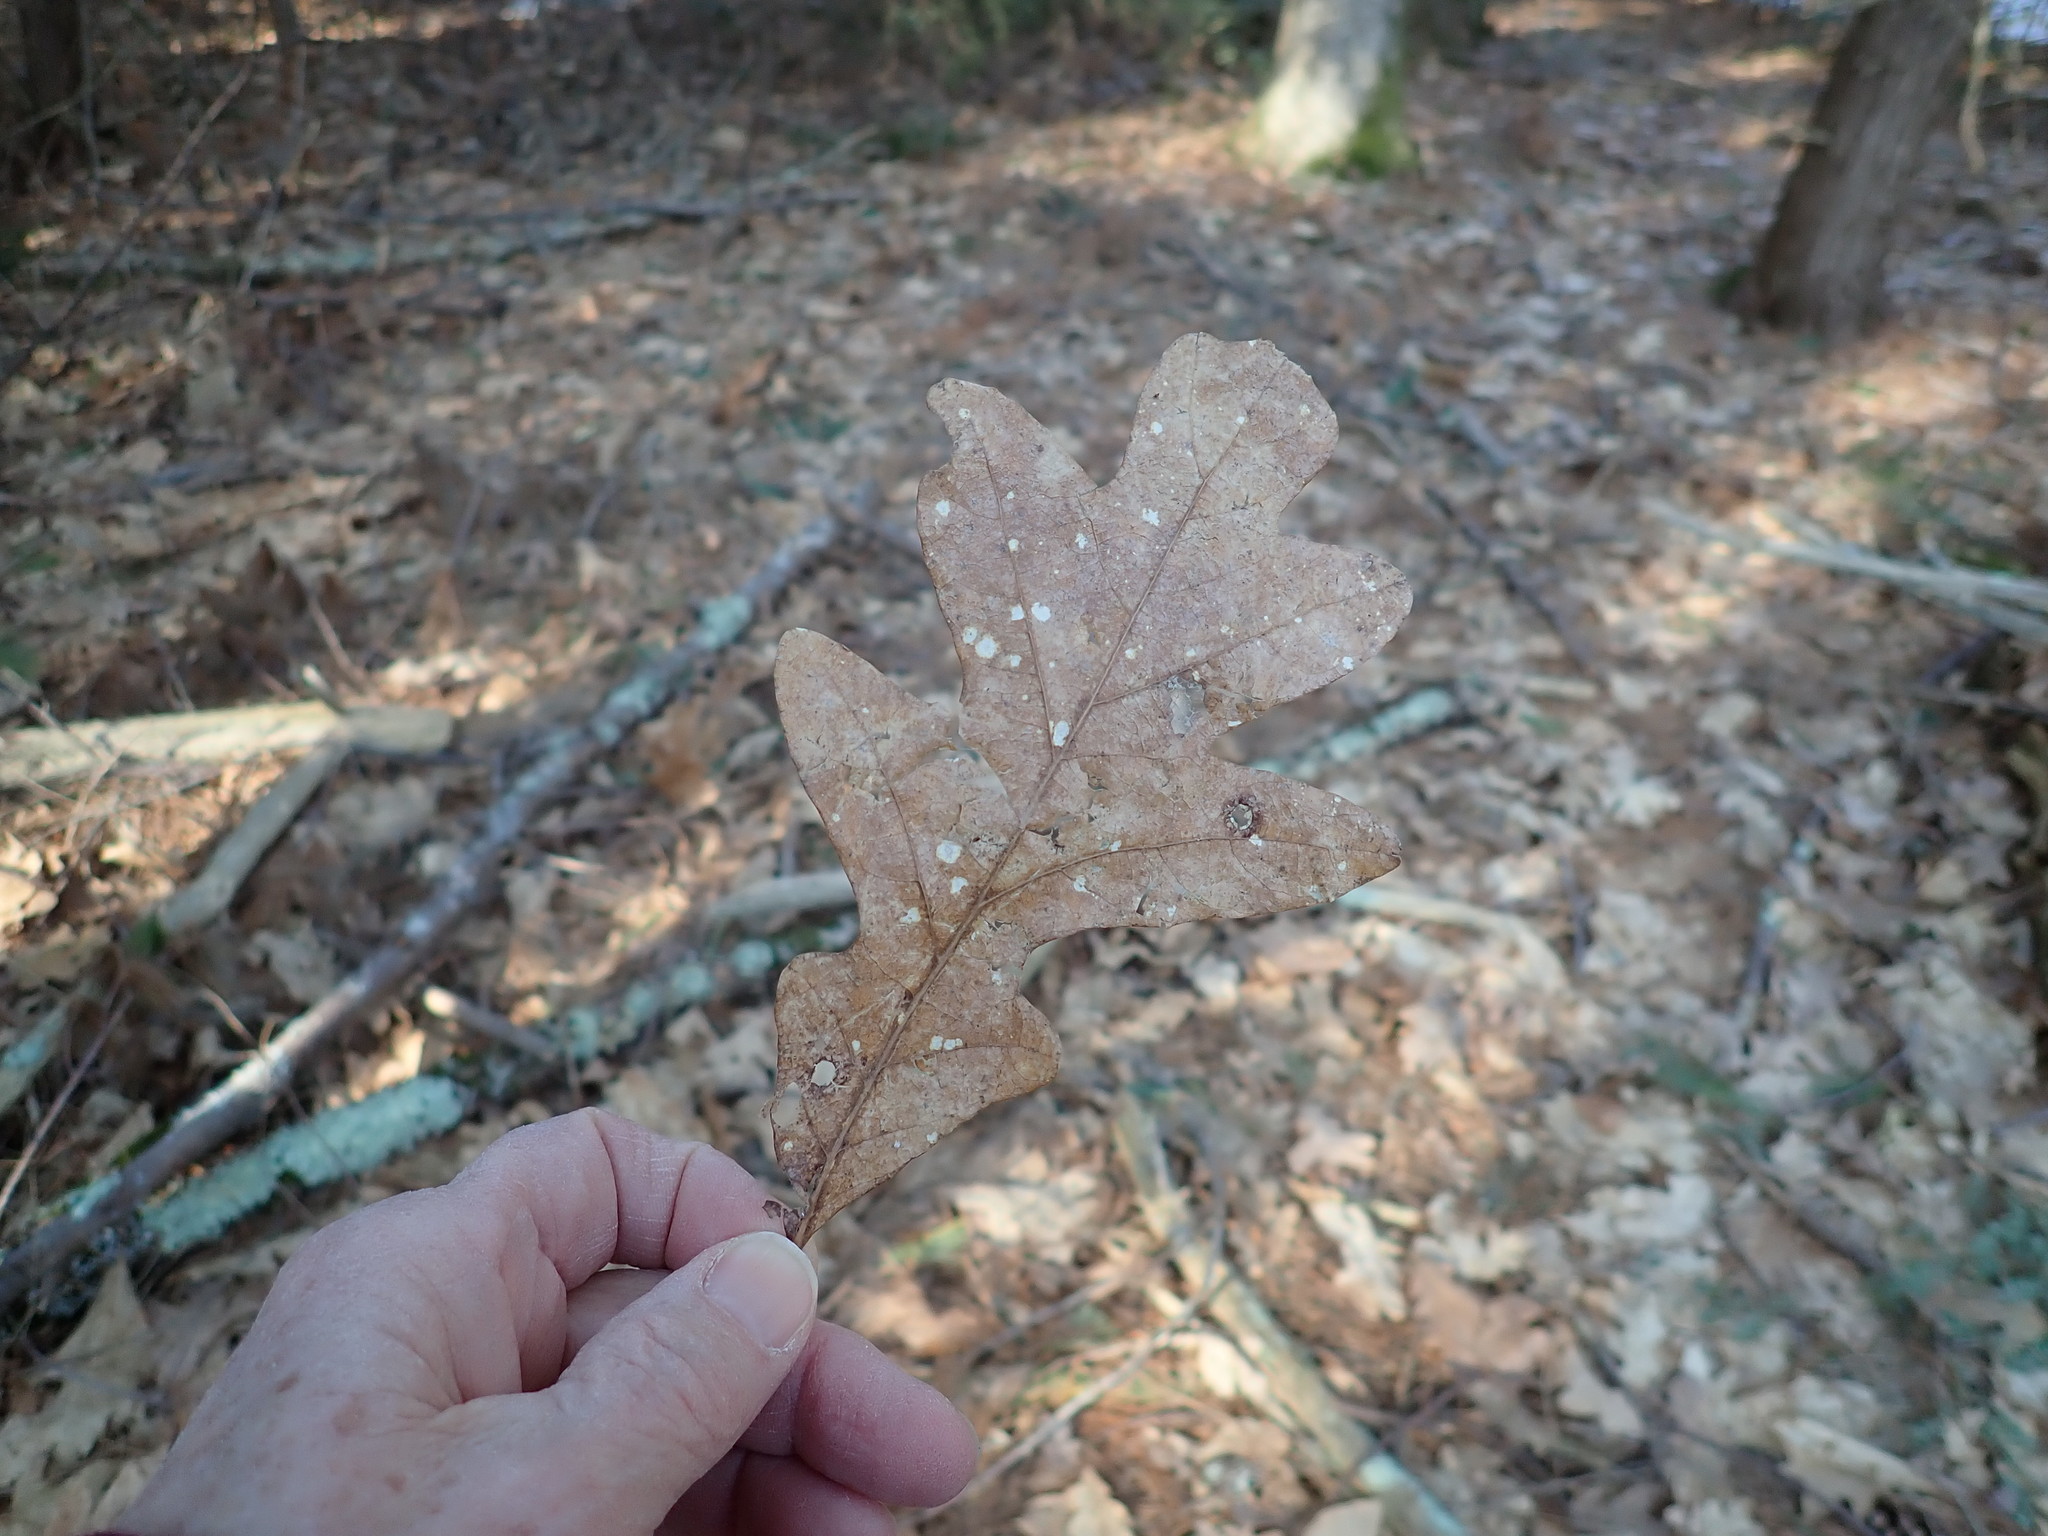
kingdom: Plantae
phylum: Tracheophyta
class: Magnoliopsida
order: Fagales
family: Fagaceae
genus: Quercus
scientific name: Quercus alba
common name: White oak
